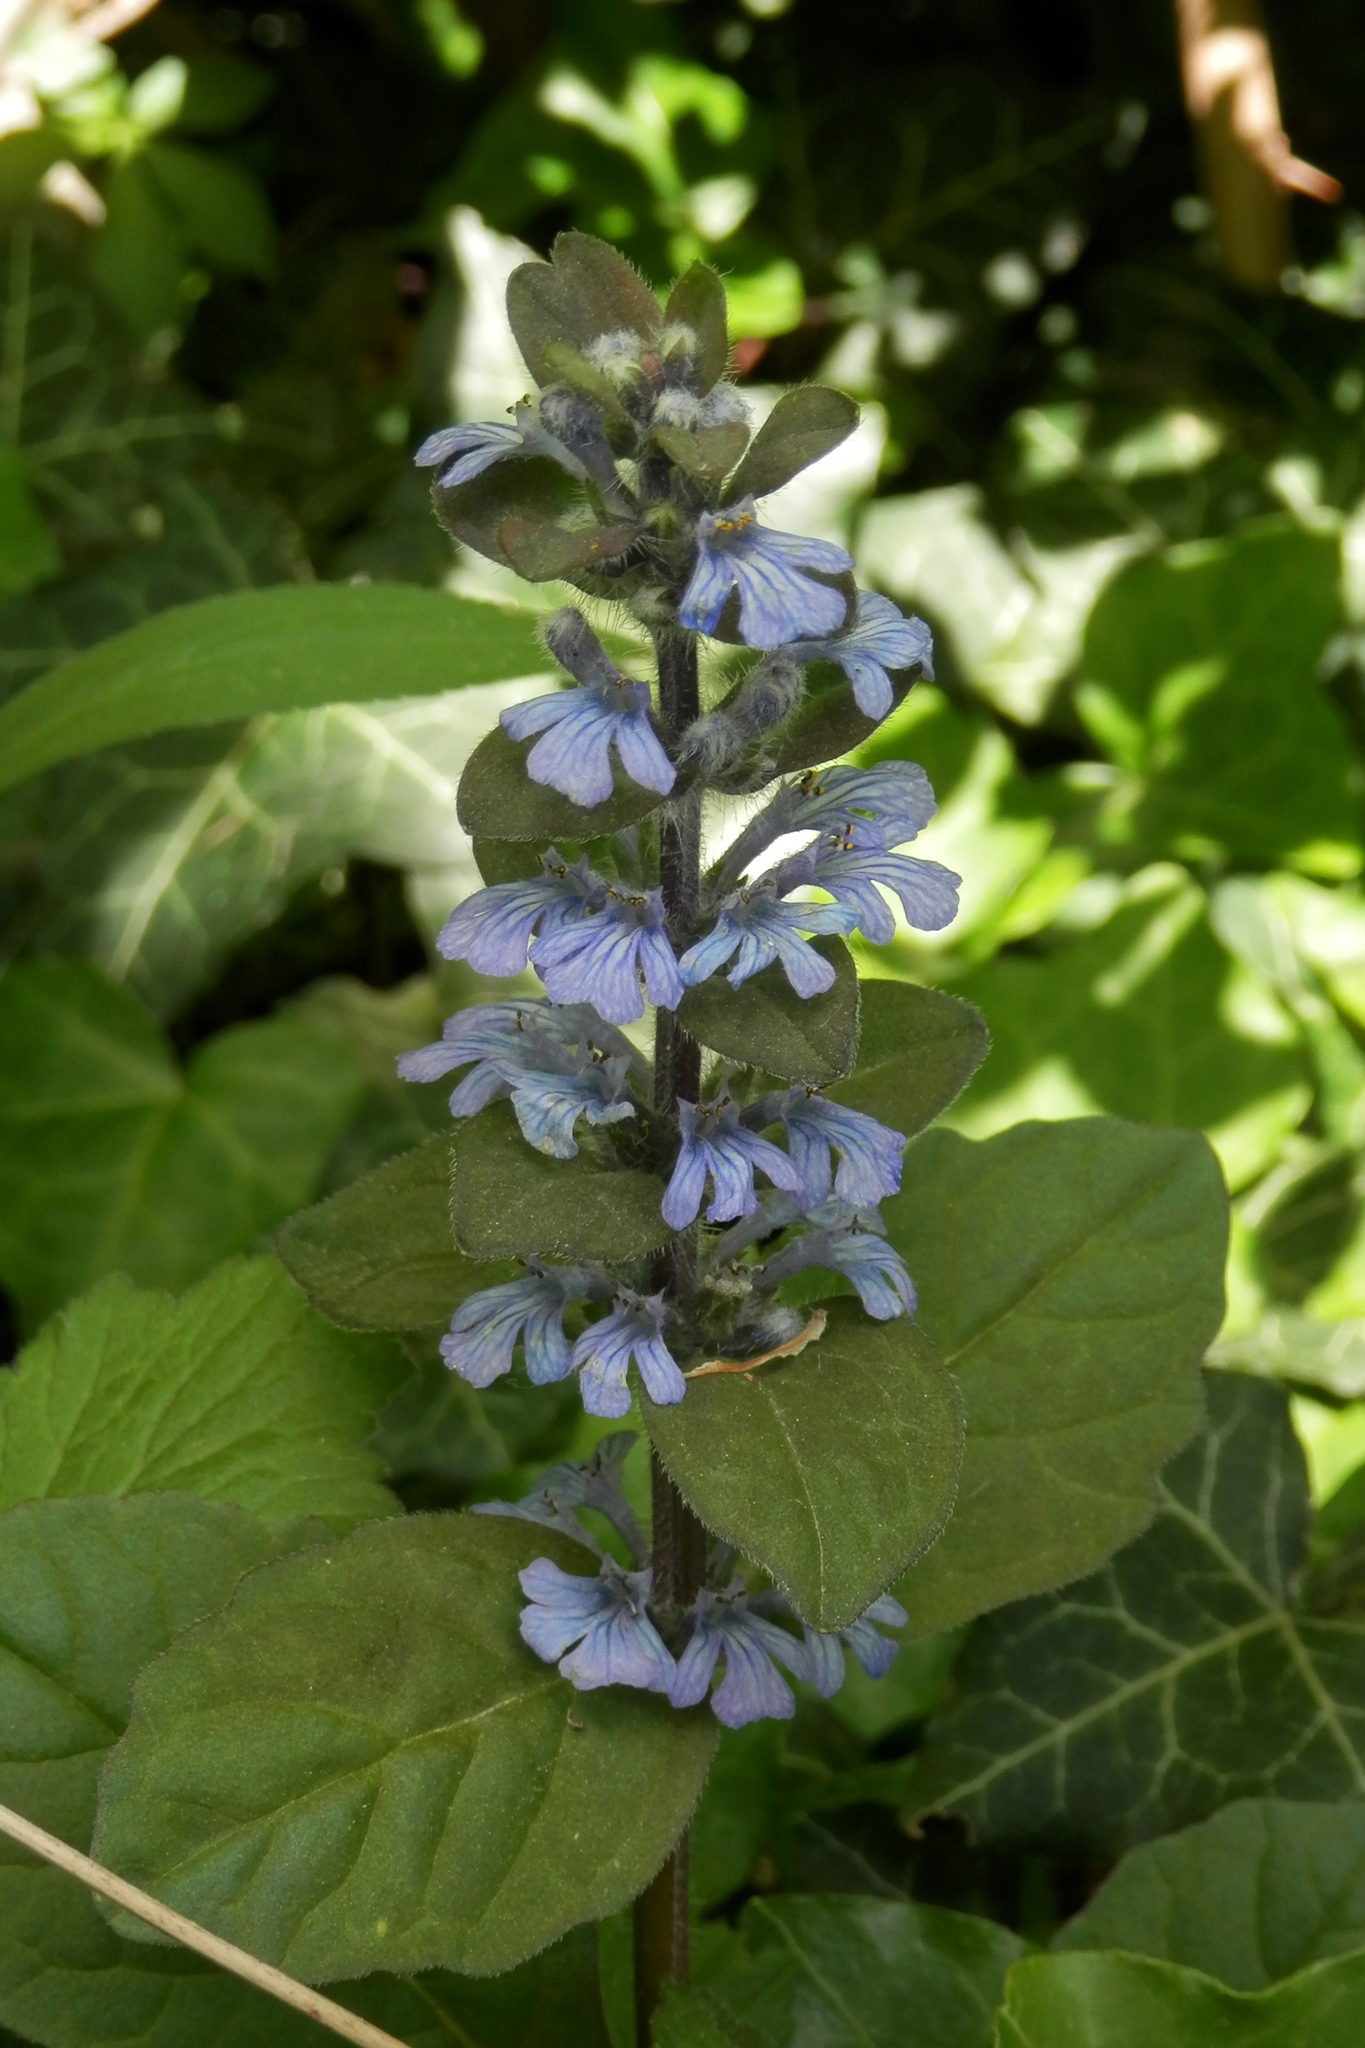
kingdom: Plantae
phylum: Tracheophyta
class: Magnoliopsida
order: Lamiales
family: Lamiaceae
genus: Ajuga
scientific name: Ajuga reptans
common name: Bugle
